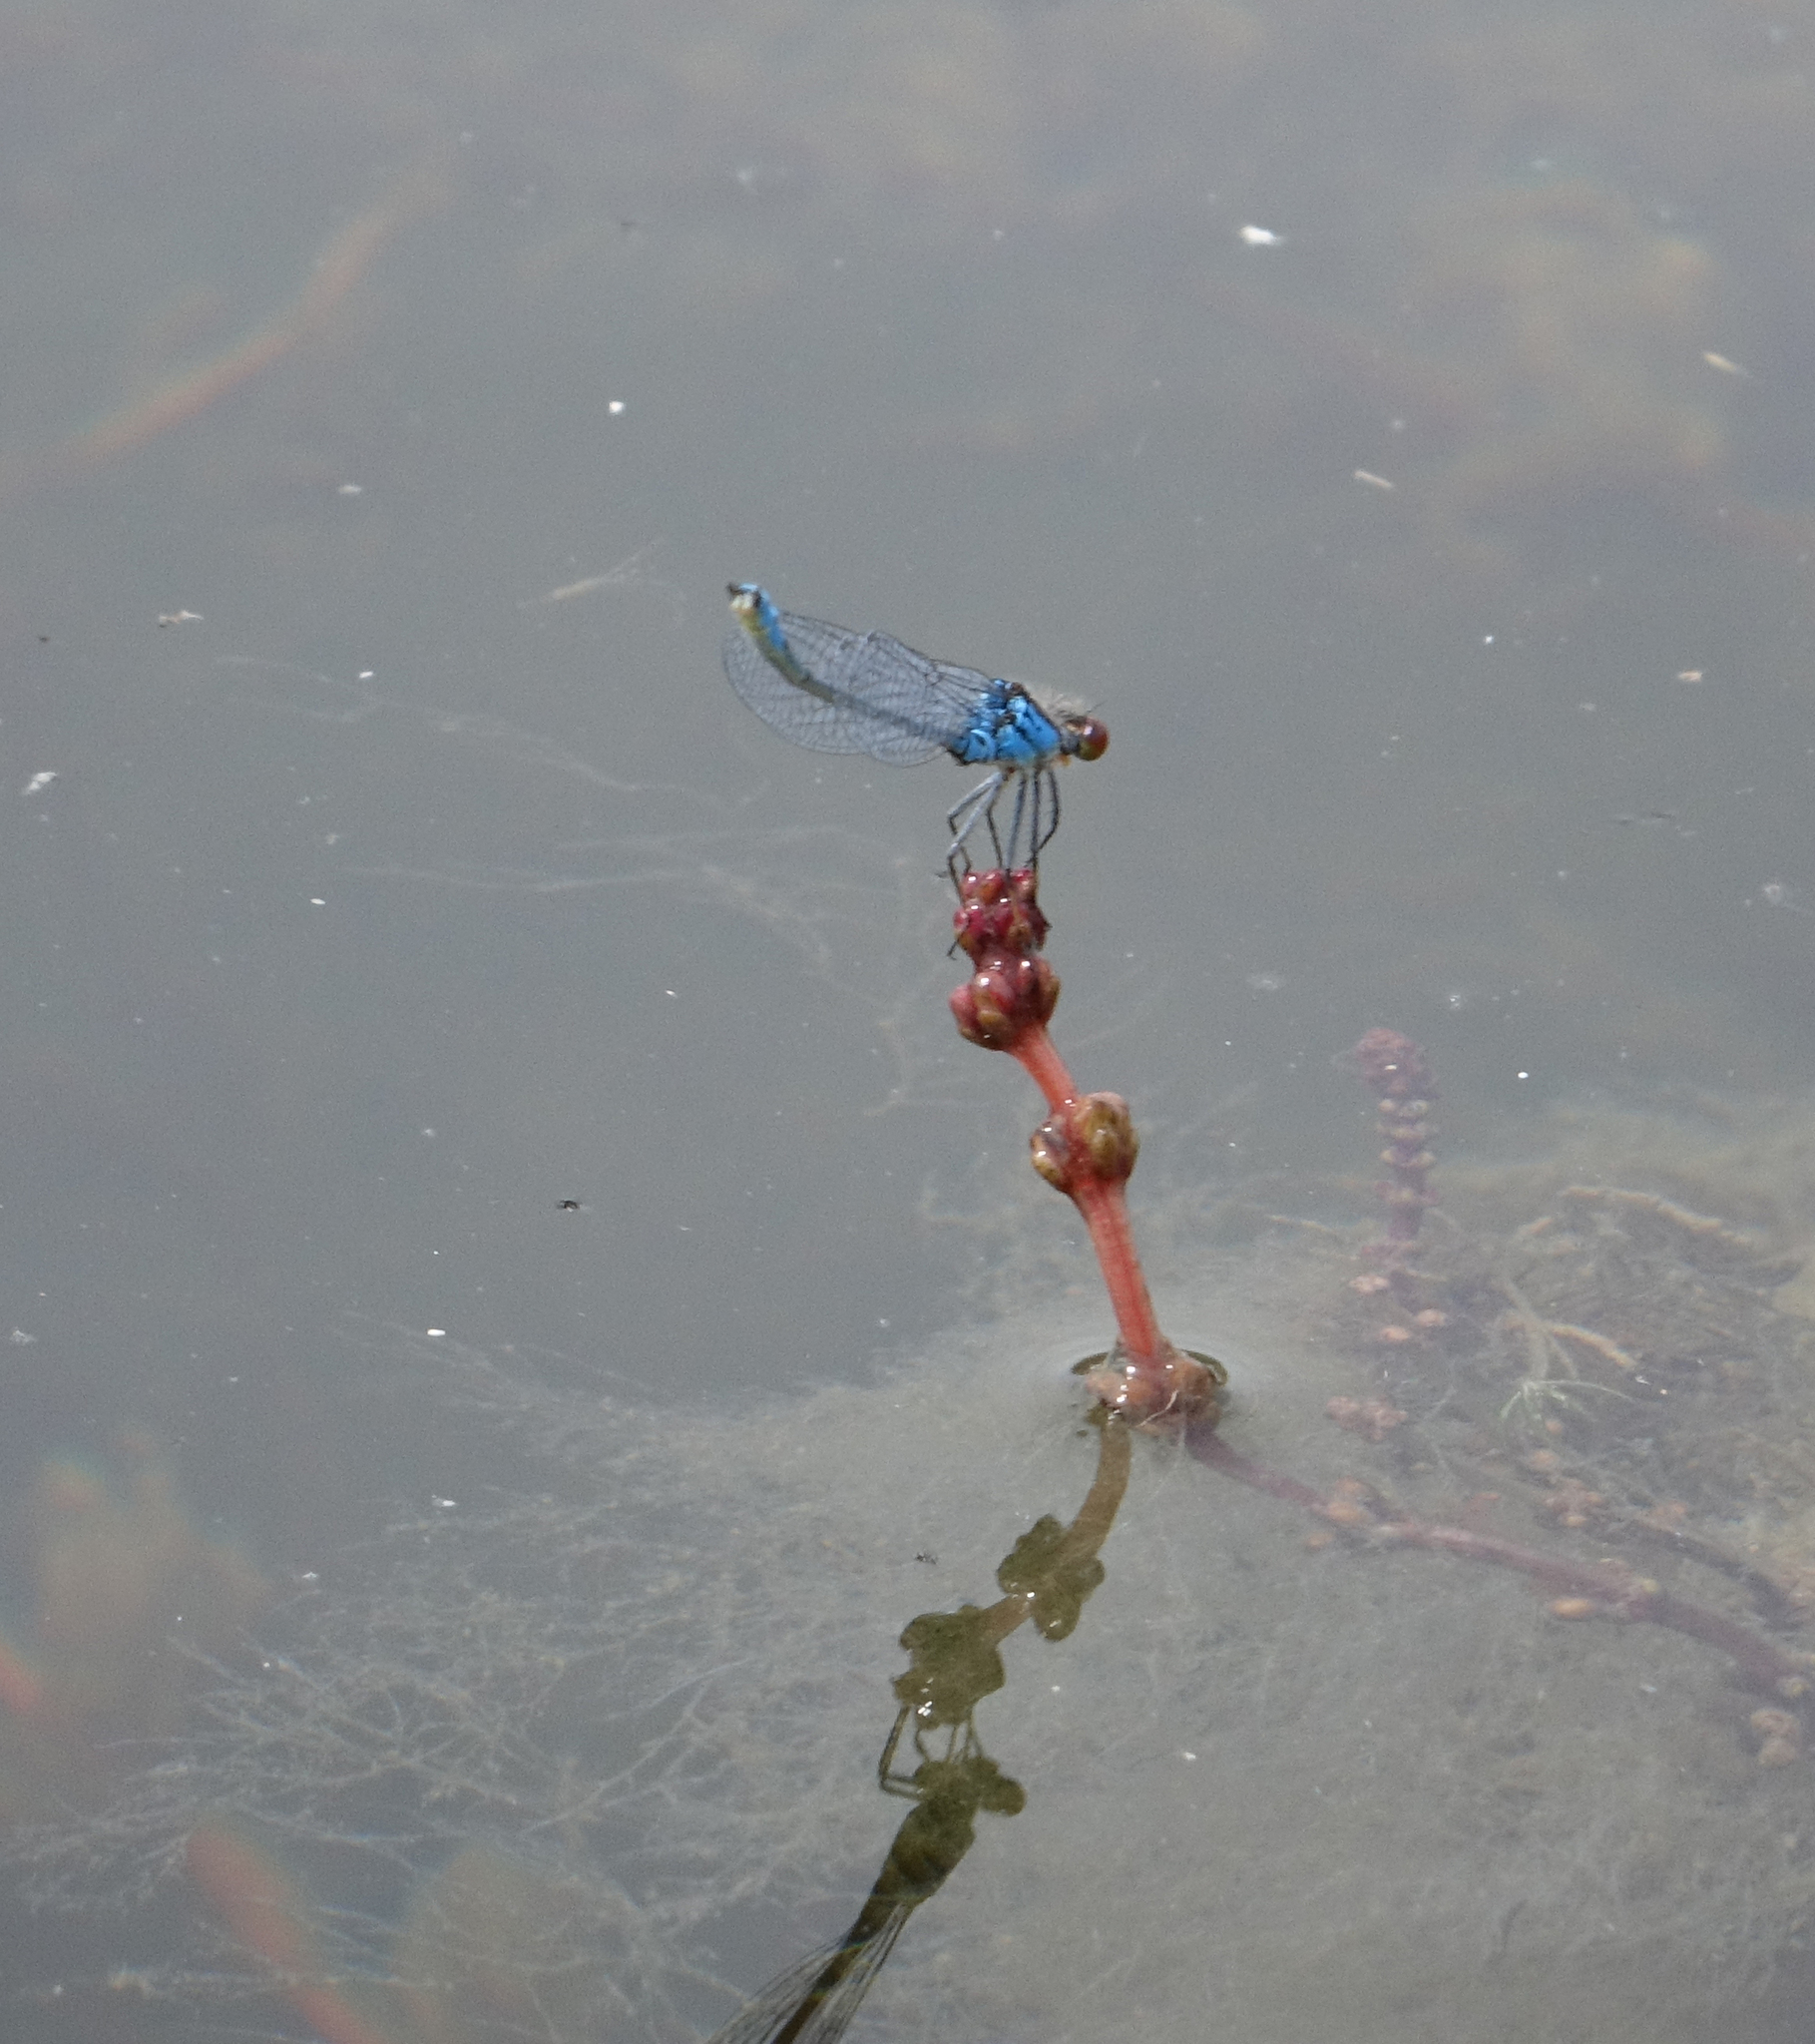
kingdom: Animalia
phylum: Arthropoda
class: Insecta
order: Odonata
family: Coenagrionidae
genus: Erythromma
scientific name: Erythromma viridulum
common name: Small red-eyed damselfly
